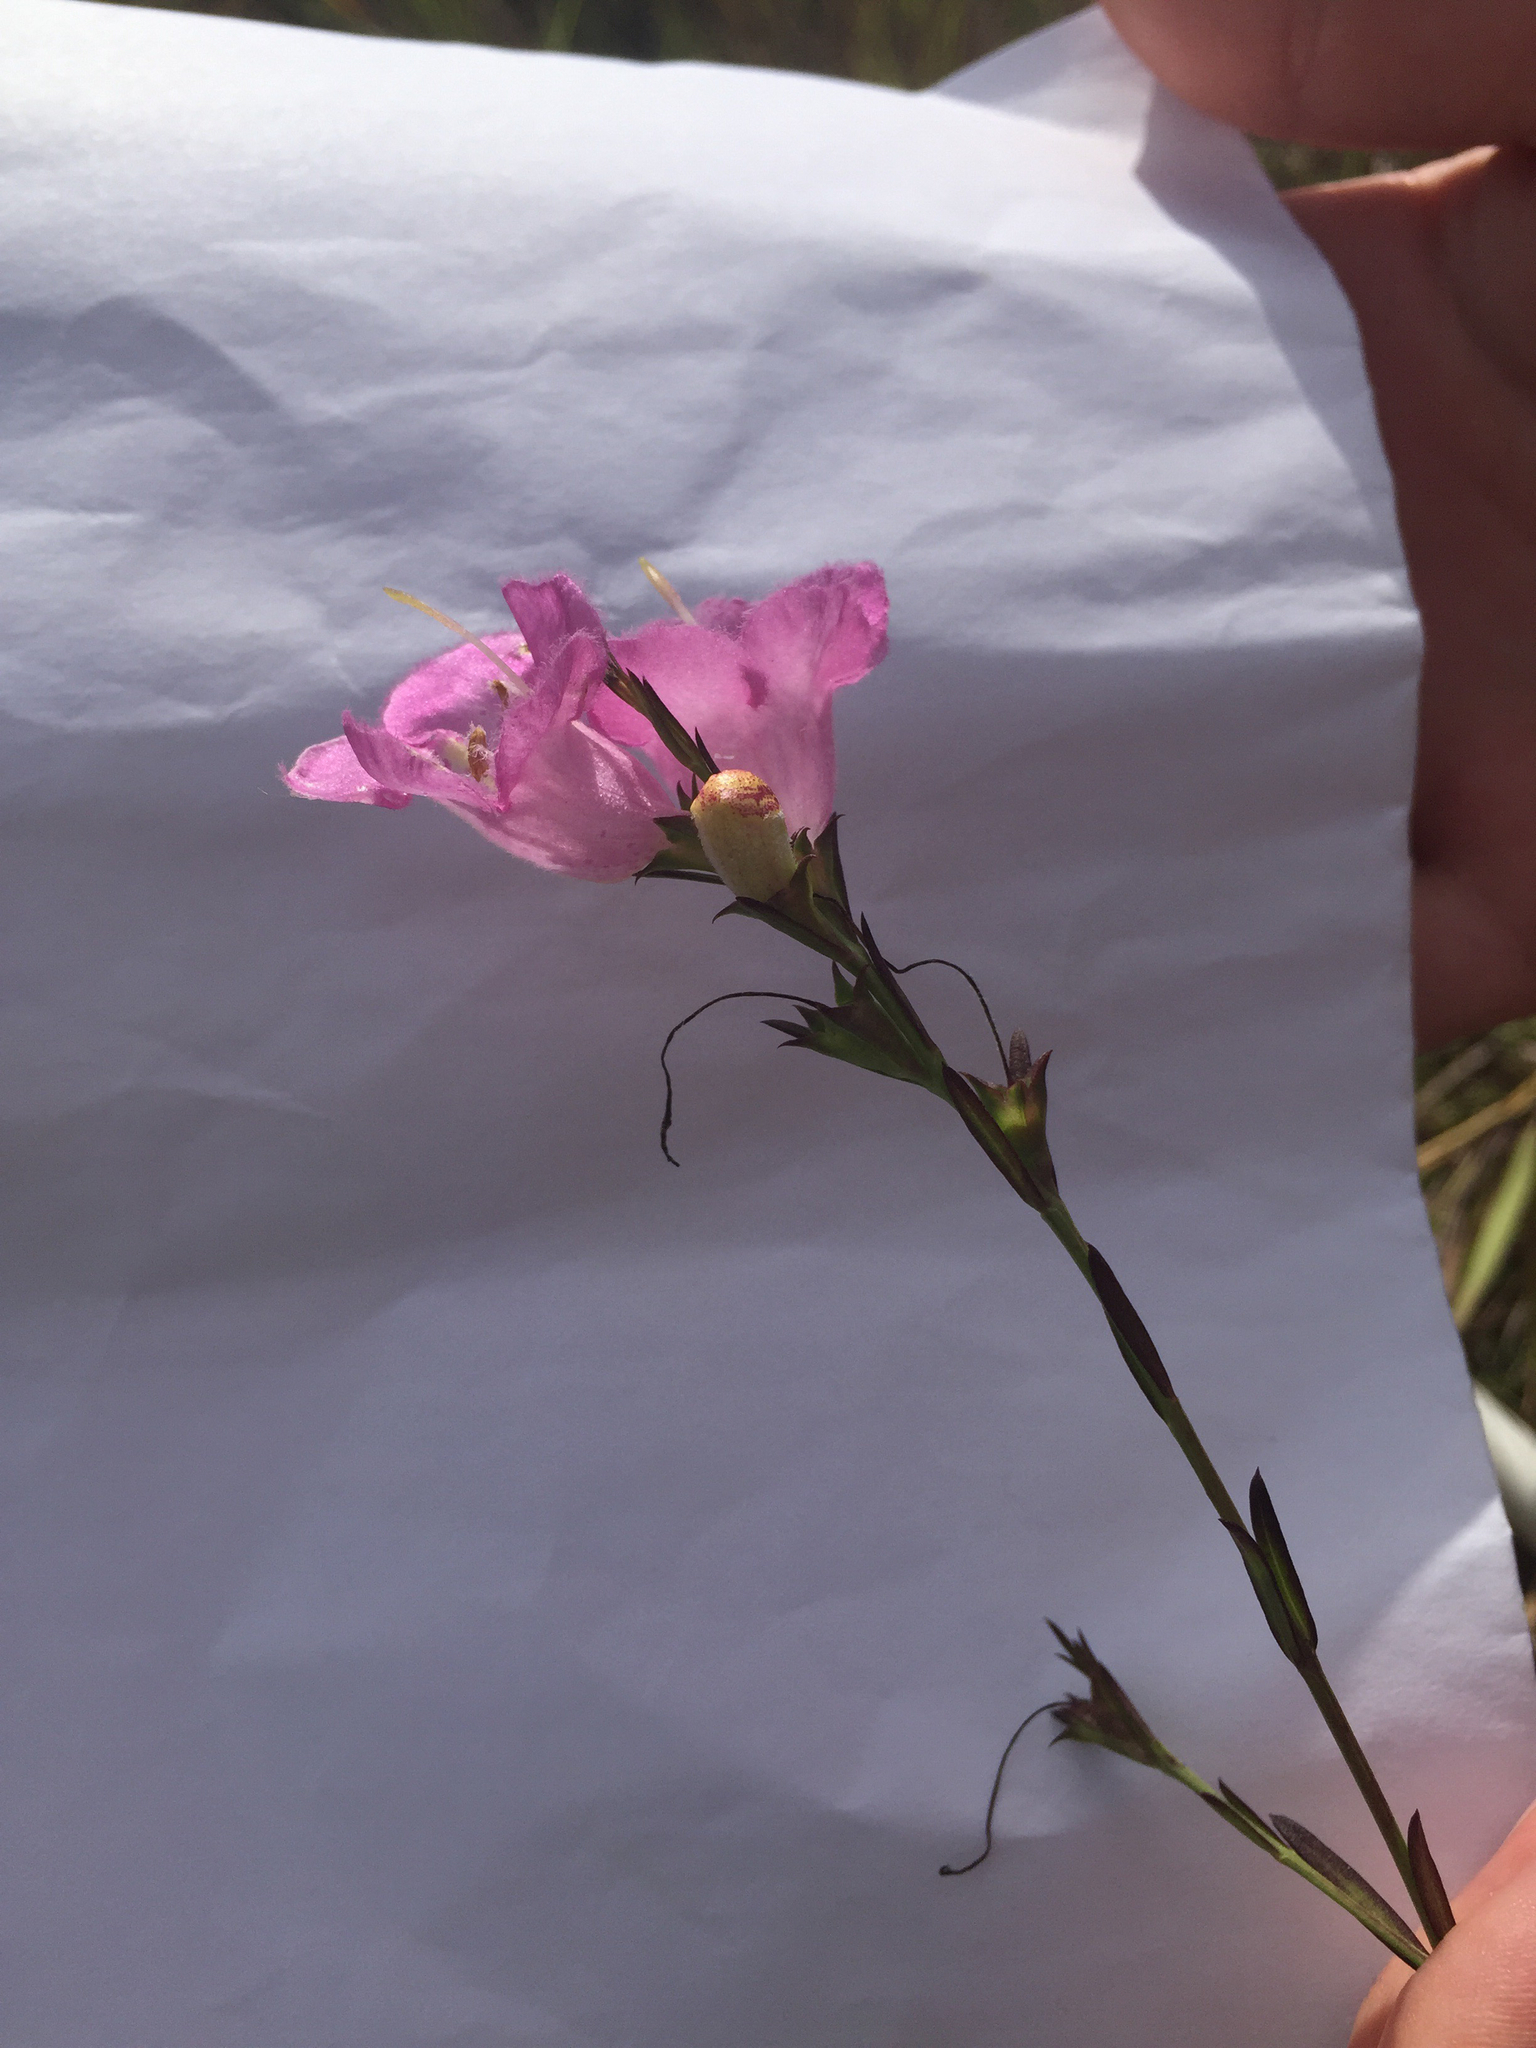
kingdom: Plantae
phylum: Tracheophyta
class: Magnoliopsida
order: Lamiales
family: Orobanchaceae
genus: Agalinis
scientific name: Agalinis heterophylla
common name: Prairie agalinis
